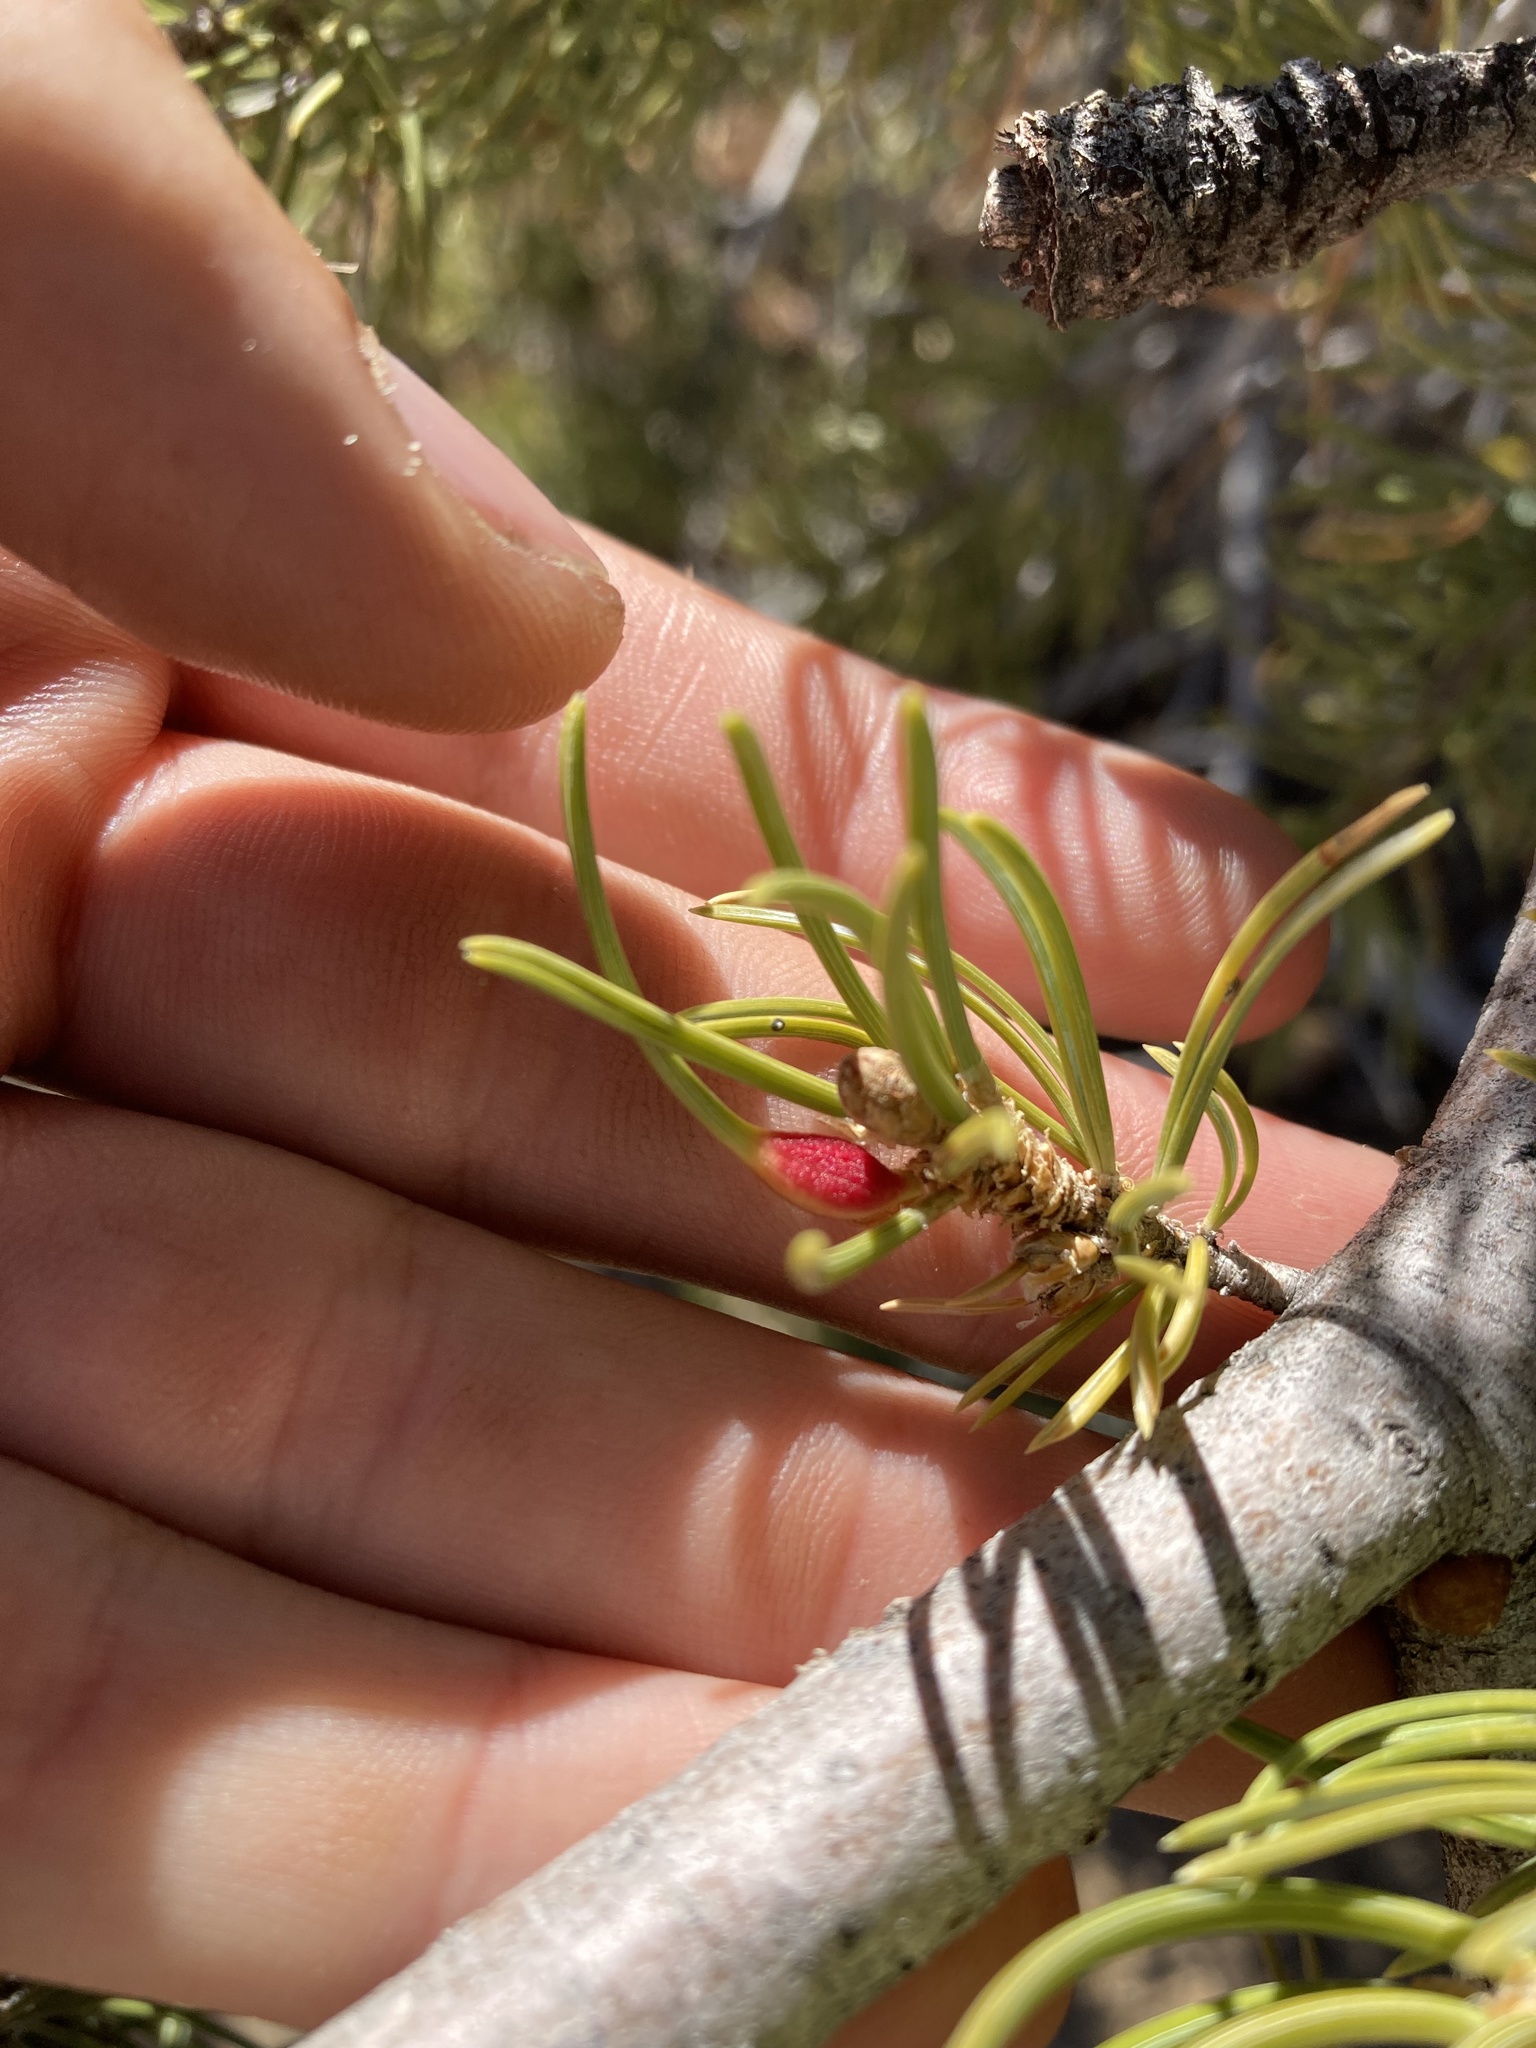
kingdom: Animalia
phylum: Arthropoda
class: Insecta
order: Diptera
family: Cecidomyiidae
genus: Pinyonia
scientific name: Pinyonia edulicola
